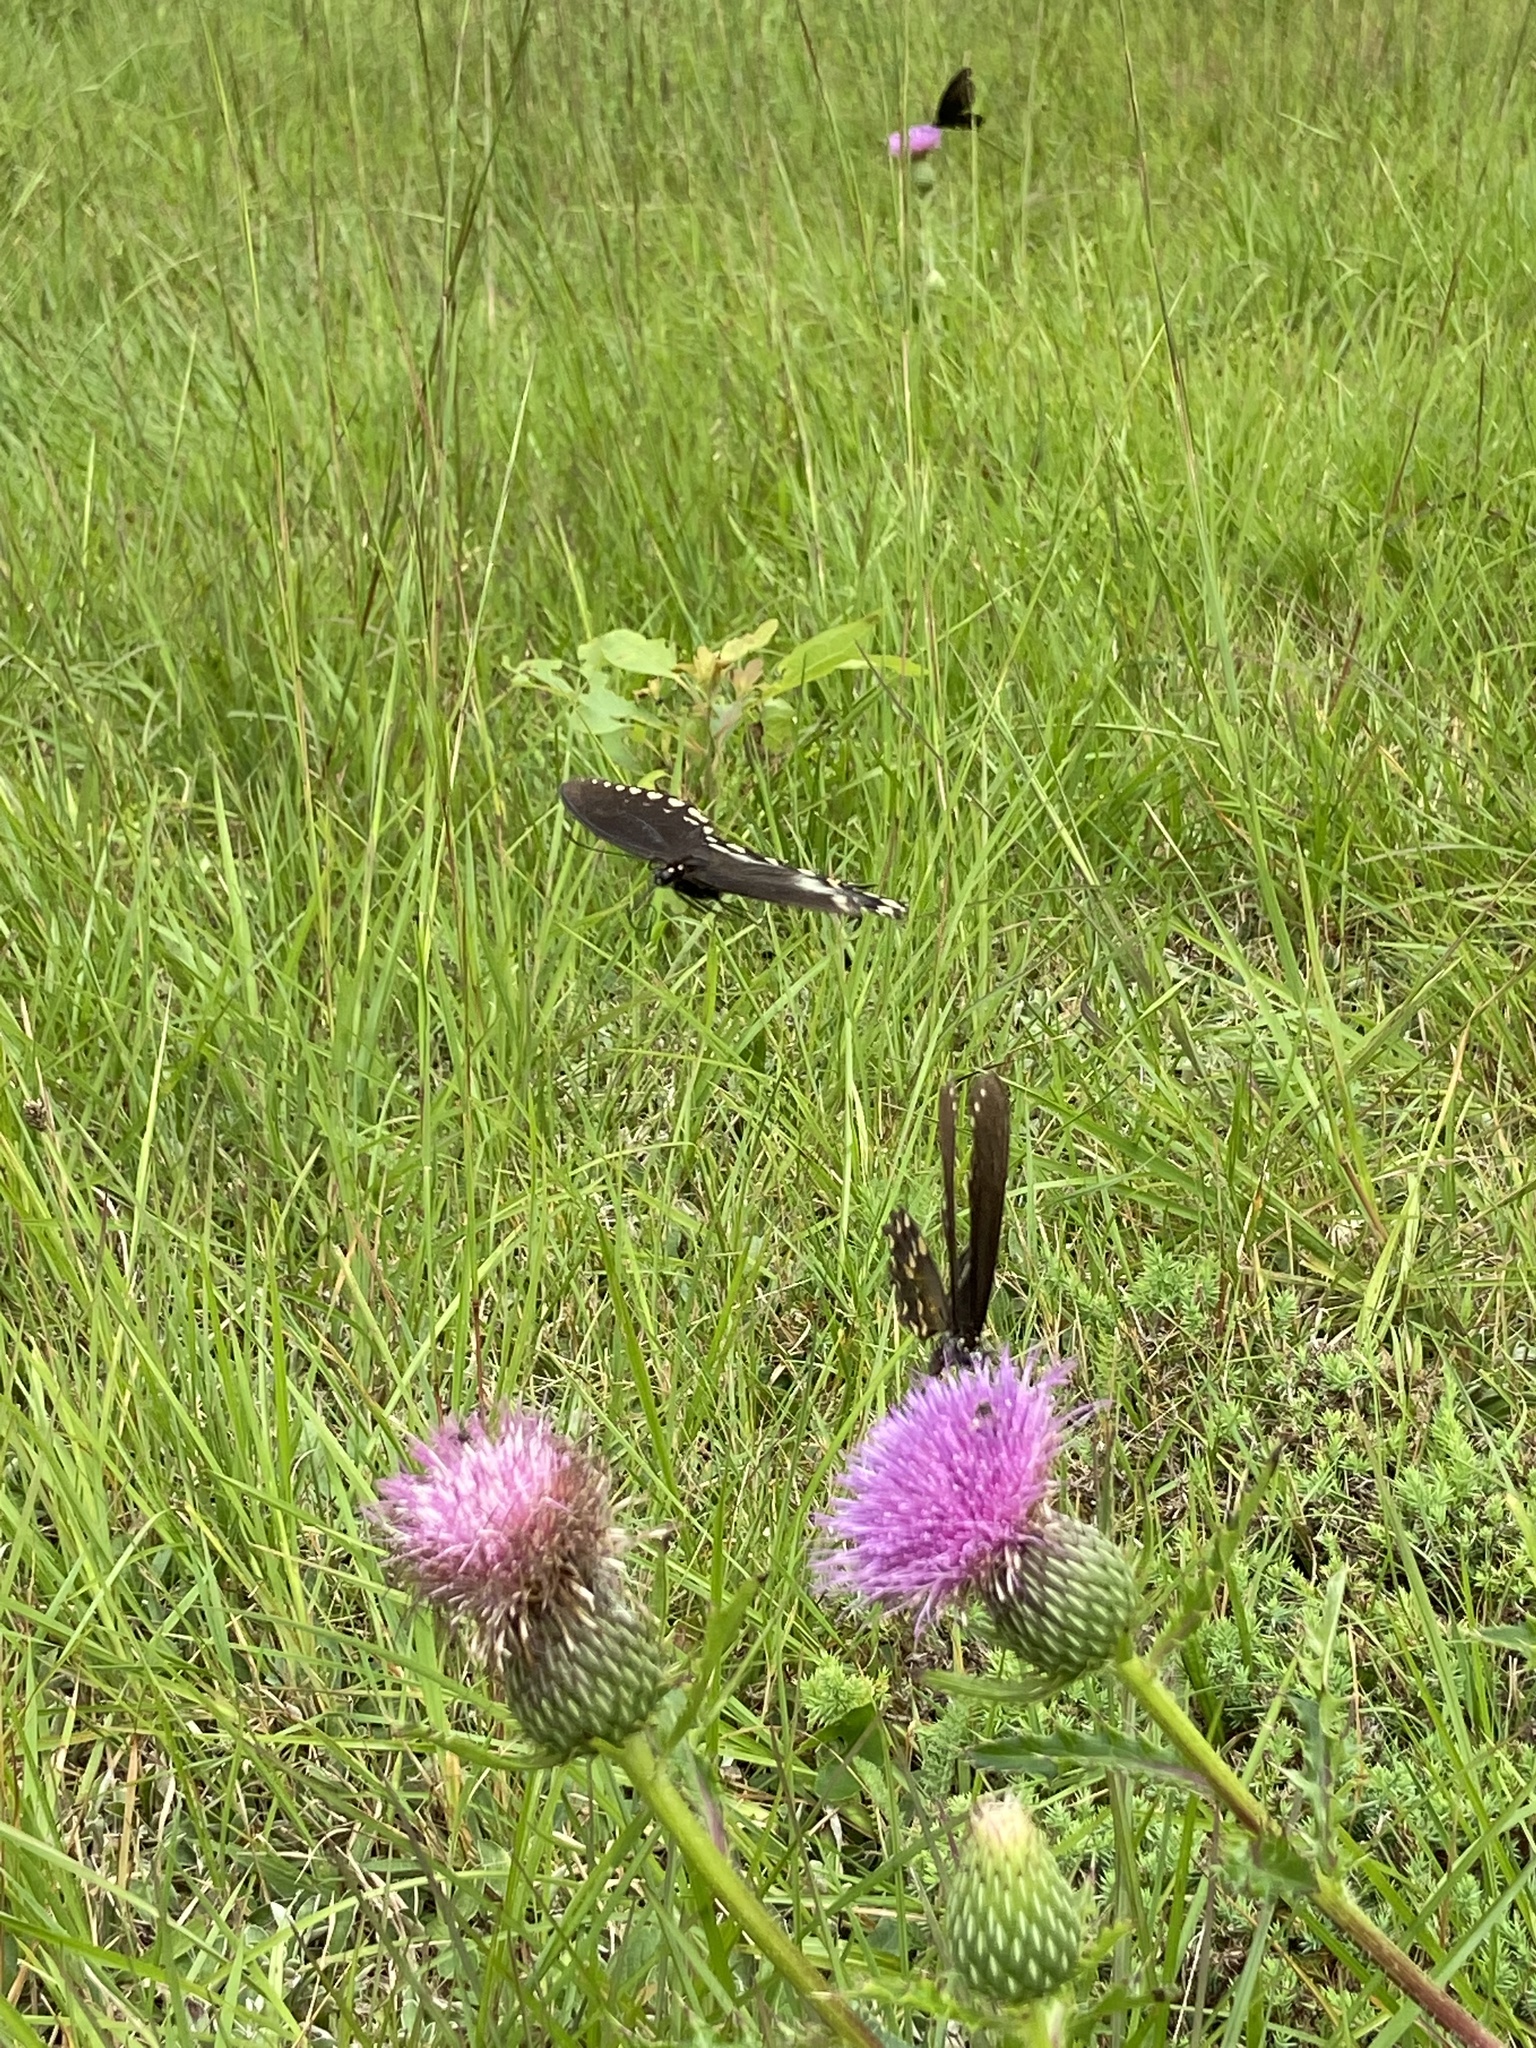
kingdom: Plantae
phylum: Tracheophyta
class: Magnoliopsida
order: Asterales
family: Asteraceae
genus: Cirsium
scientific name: Cirsium pumilum
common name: Pasture thistle
